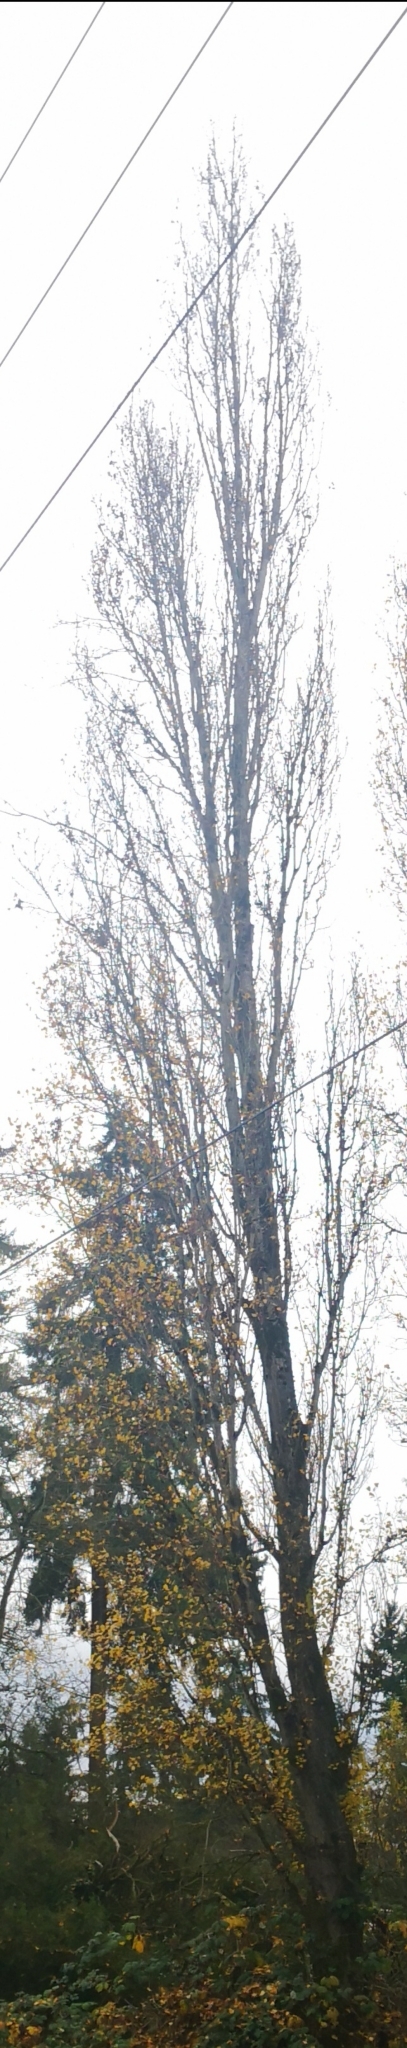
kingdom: Plantae
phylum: Tracheophyta
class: Magnoliopsida
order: Malpighiales
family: Salicaceae
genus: Populus
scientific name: Populus nigra
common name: Black poplar
